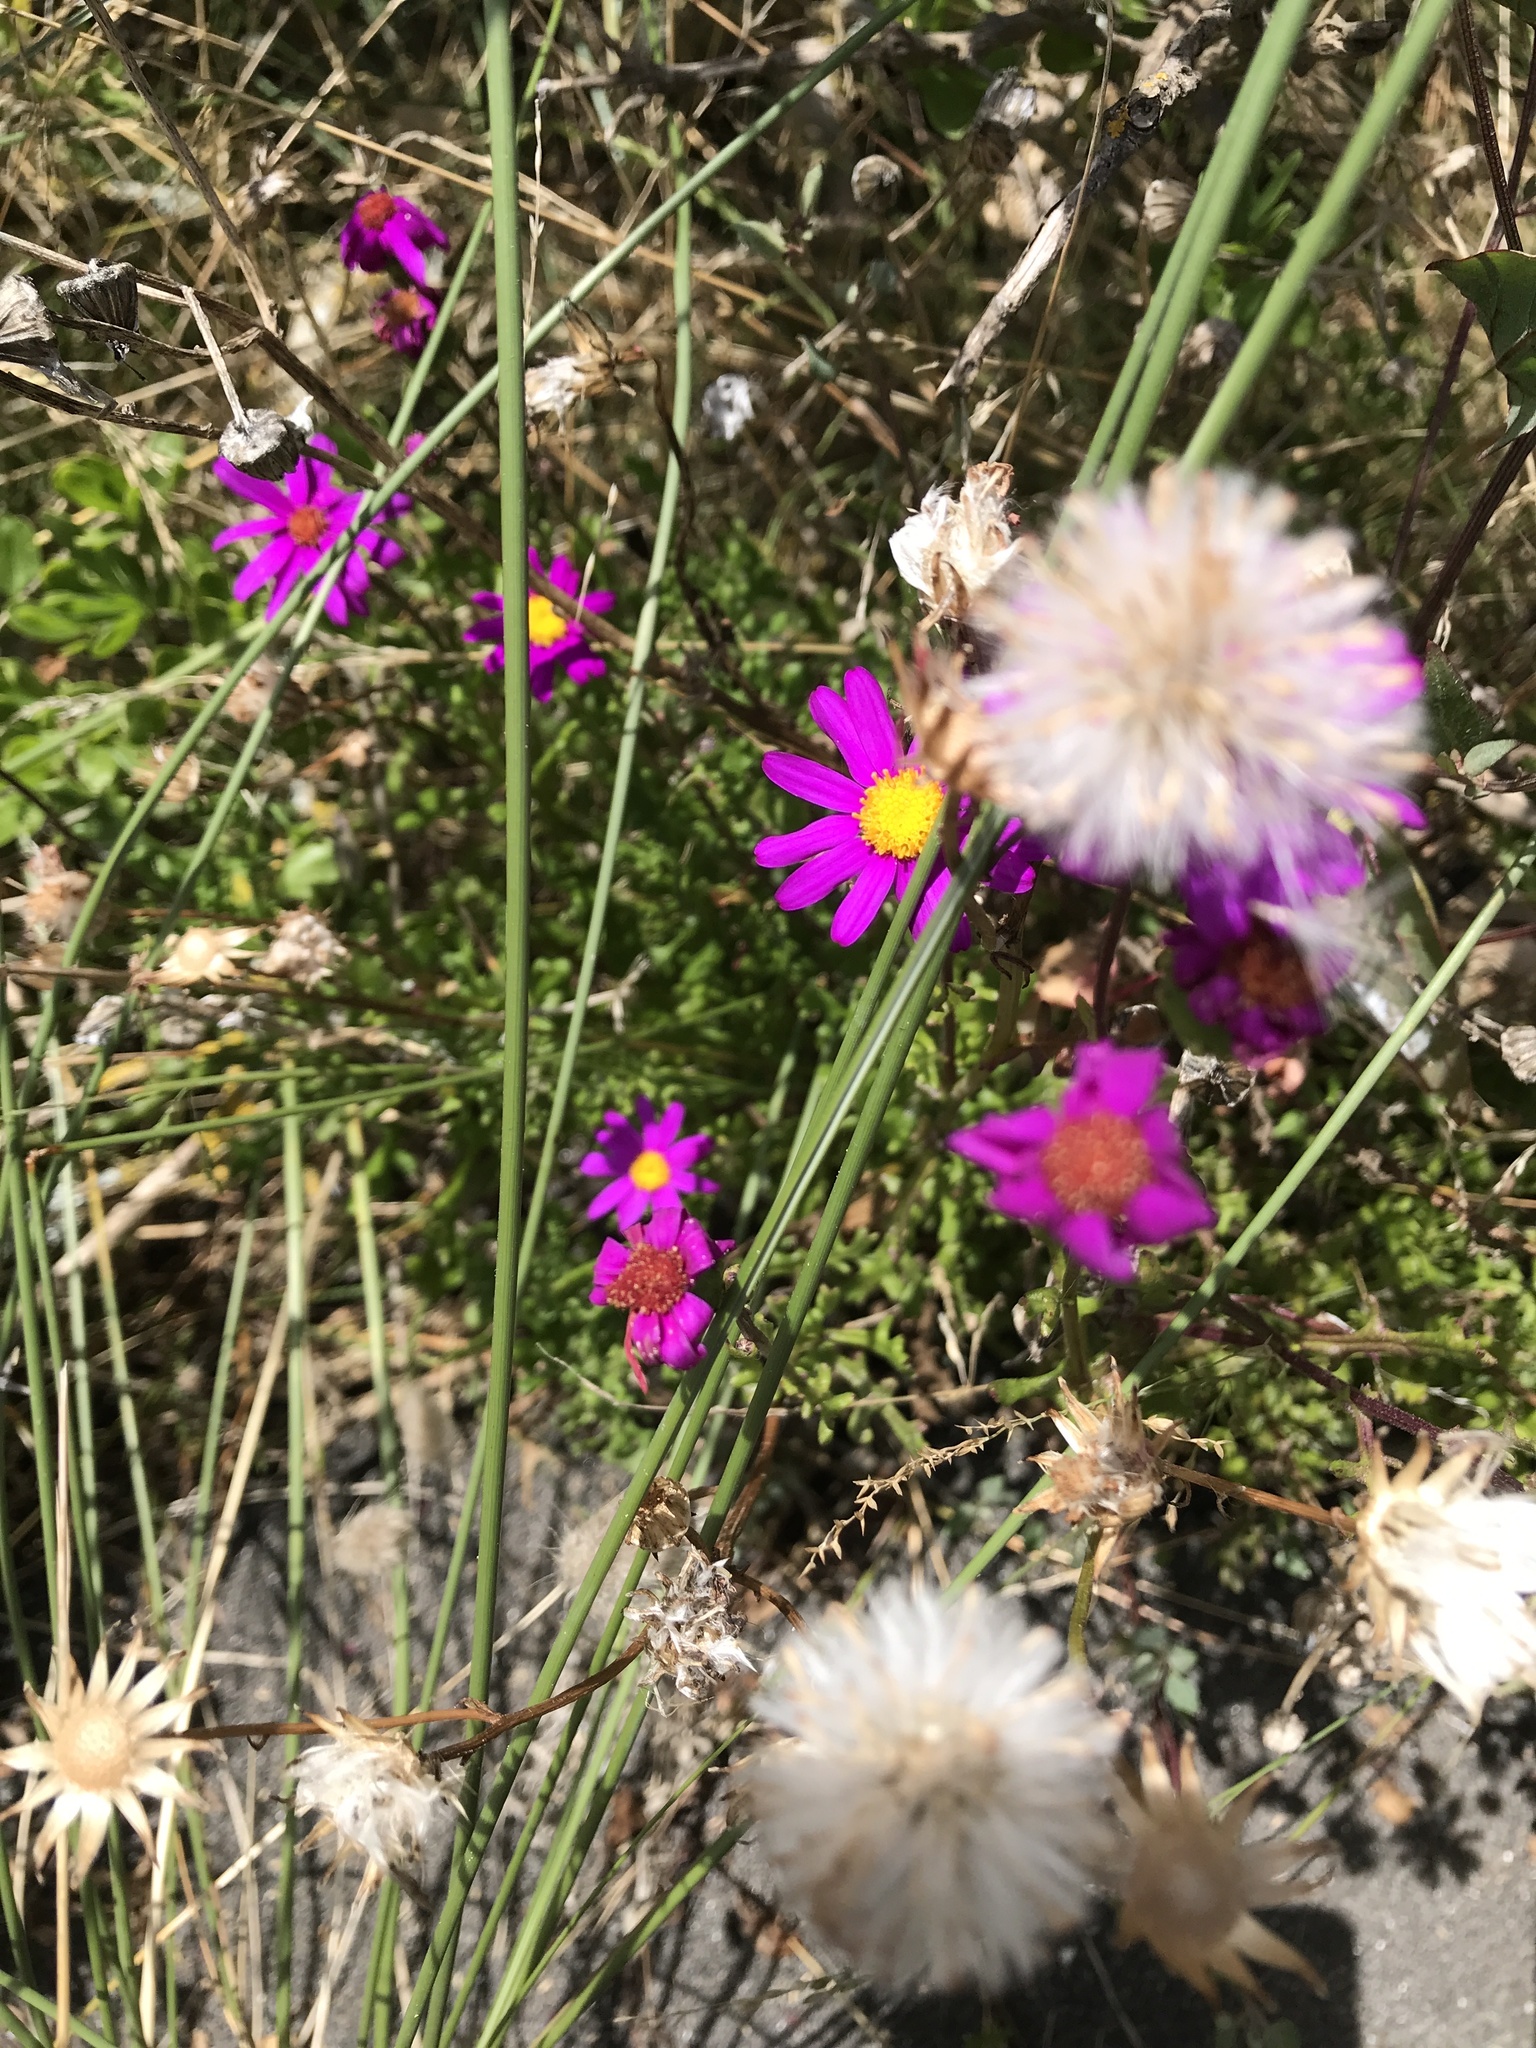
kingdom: Plantae
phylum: Tracheophyta
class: Magnoliopsida
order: Asterales
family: Asteraceae
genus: Senecio
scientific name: Senecio elegans
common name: Purple groundsel
